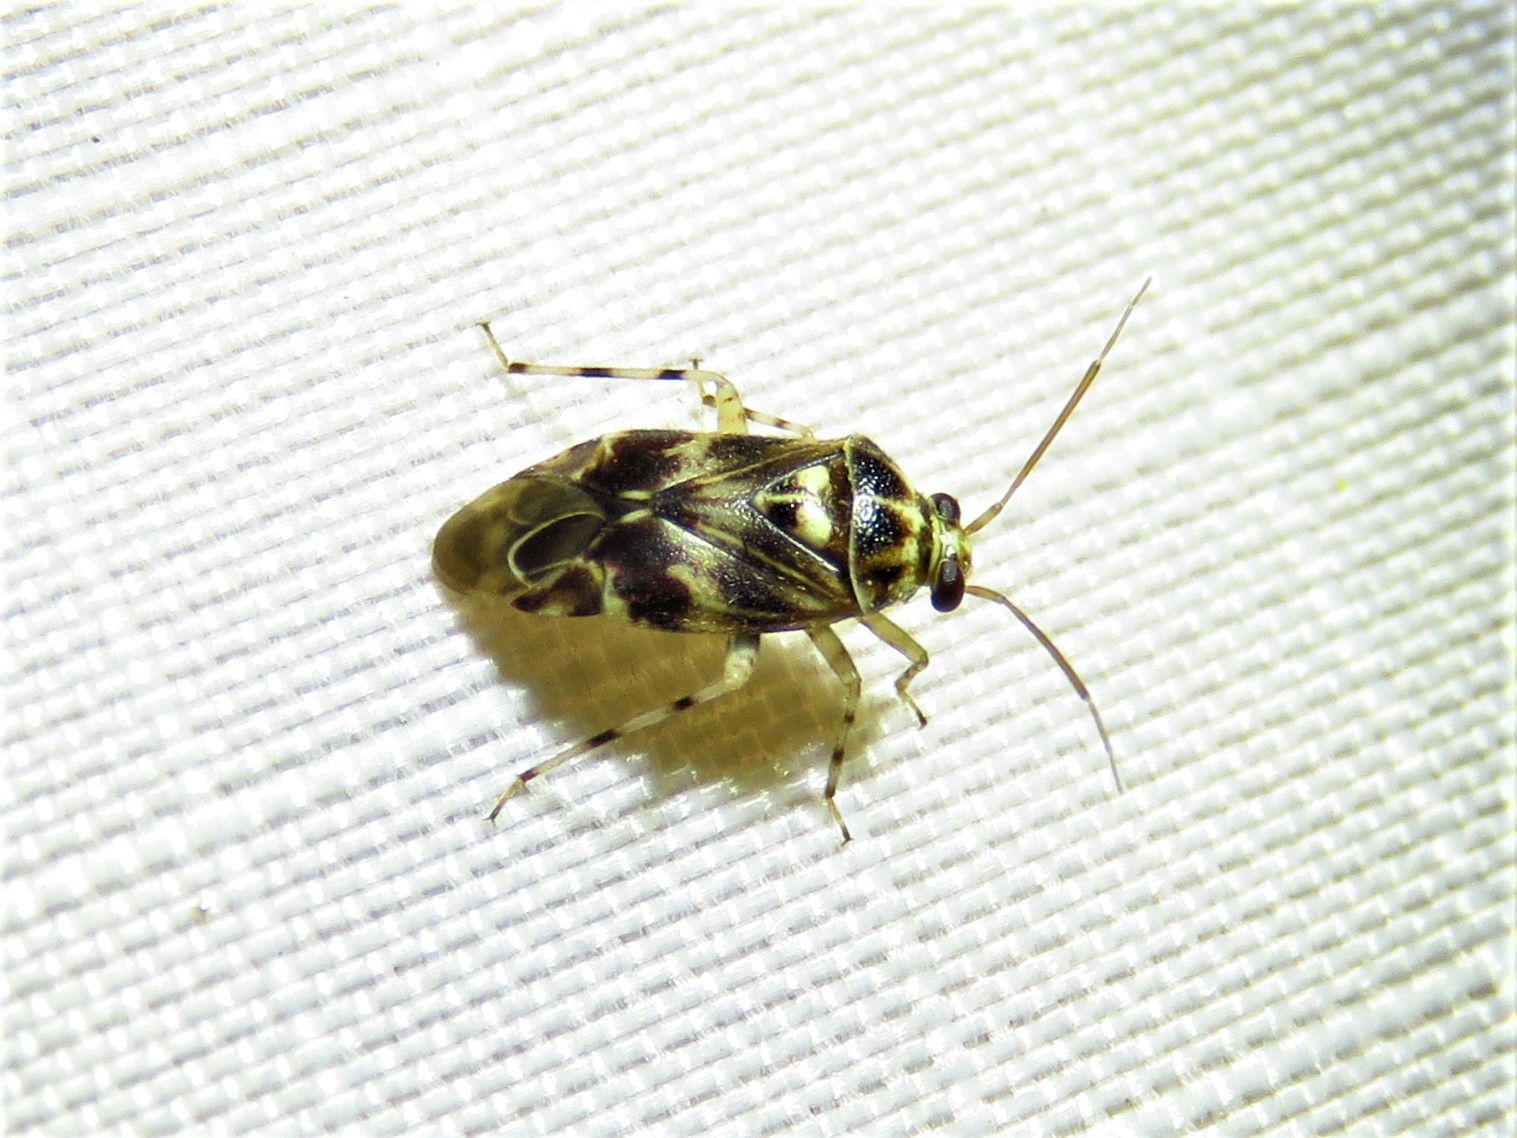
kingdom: Animalia
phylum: Arthropoda
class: Insecta
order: Hemiptera
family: Miridae
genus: Tropidosteptes
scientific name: Tropidosteptes quercicola
